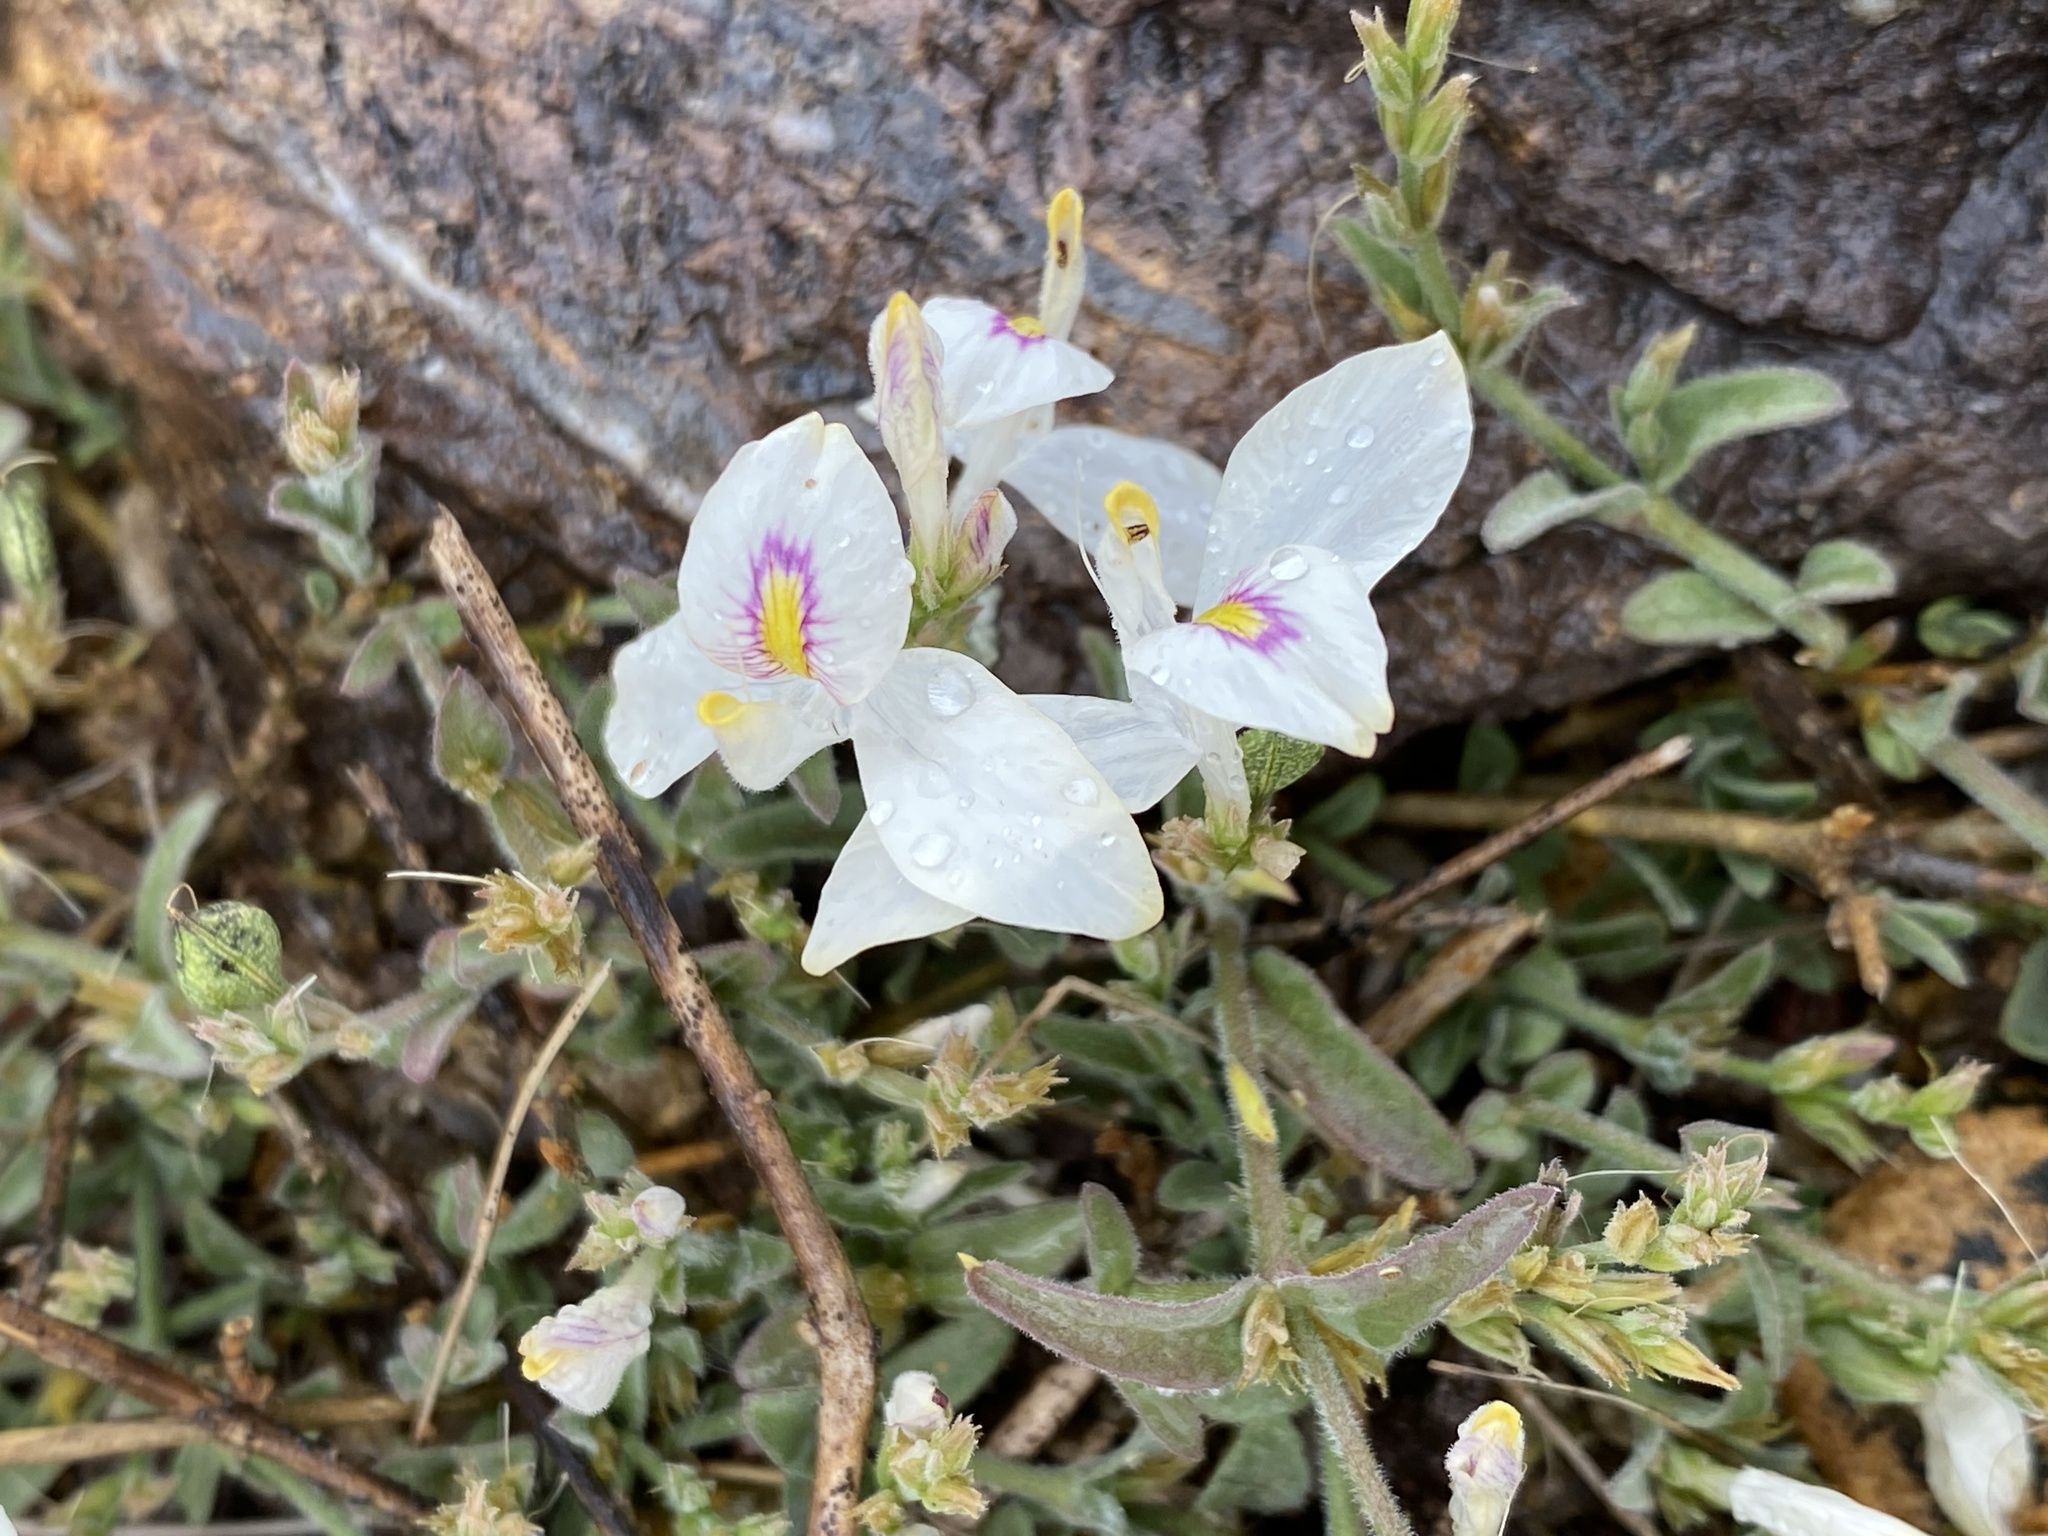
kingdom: Plantae
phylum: Tracheophyta
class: Magnoliopsida
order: Lamiales
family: Acanthaceae
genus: Carlowrightia
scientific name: Carlowrightia arizonica
